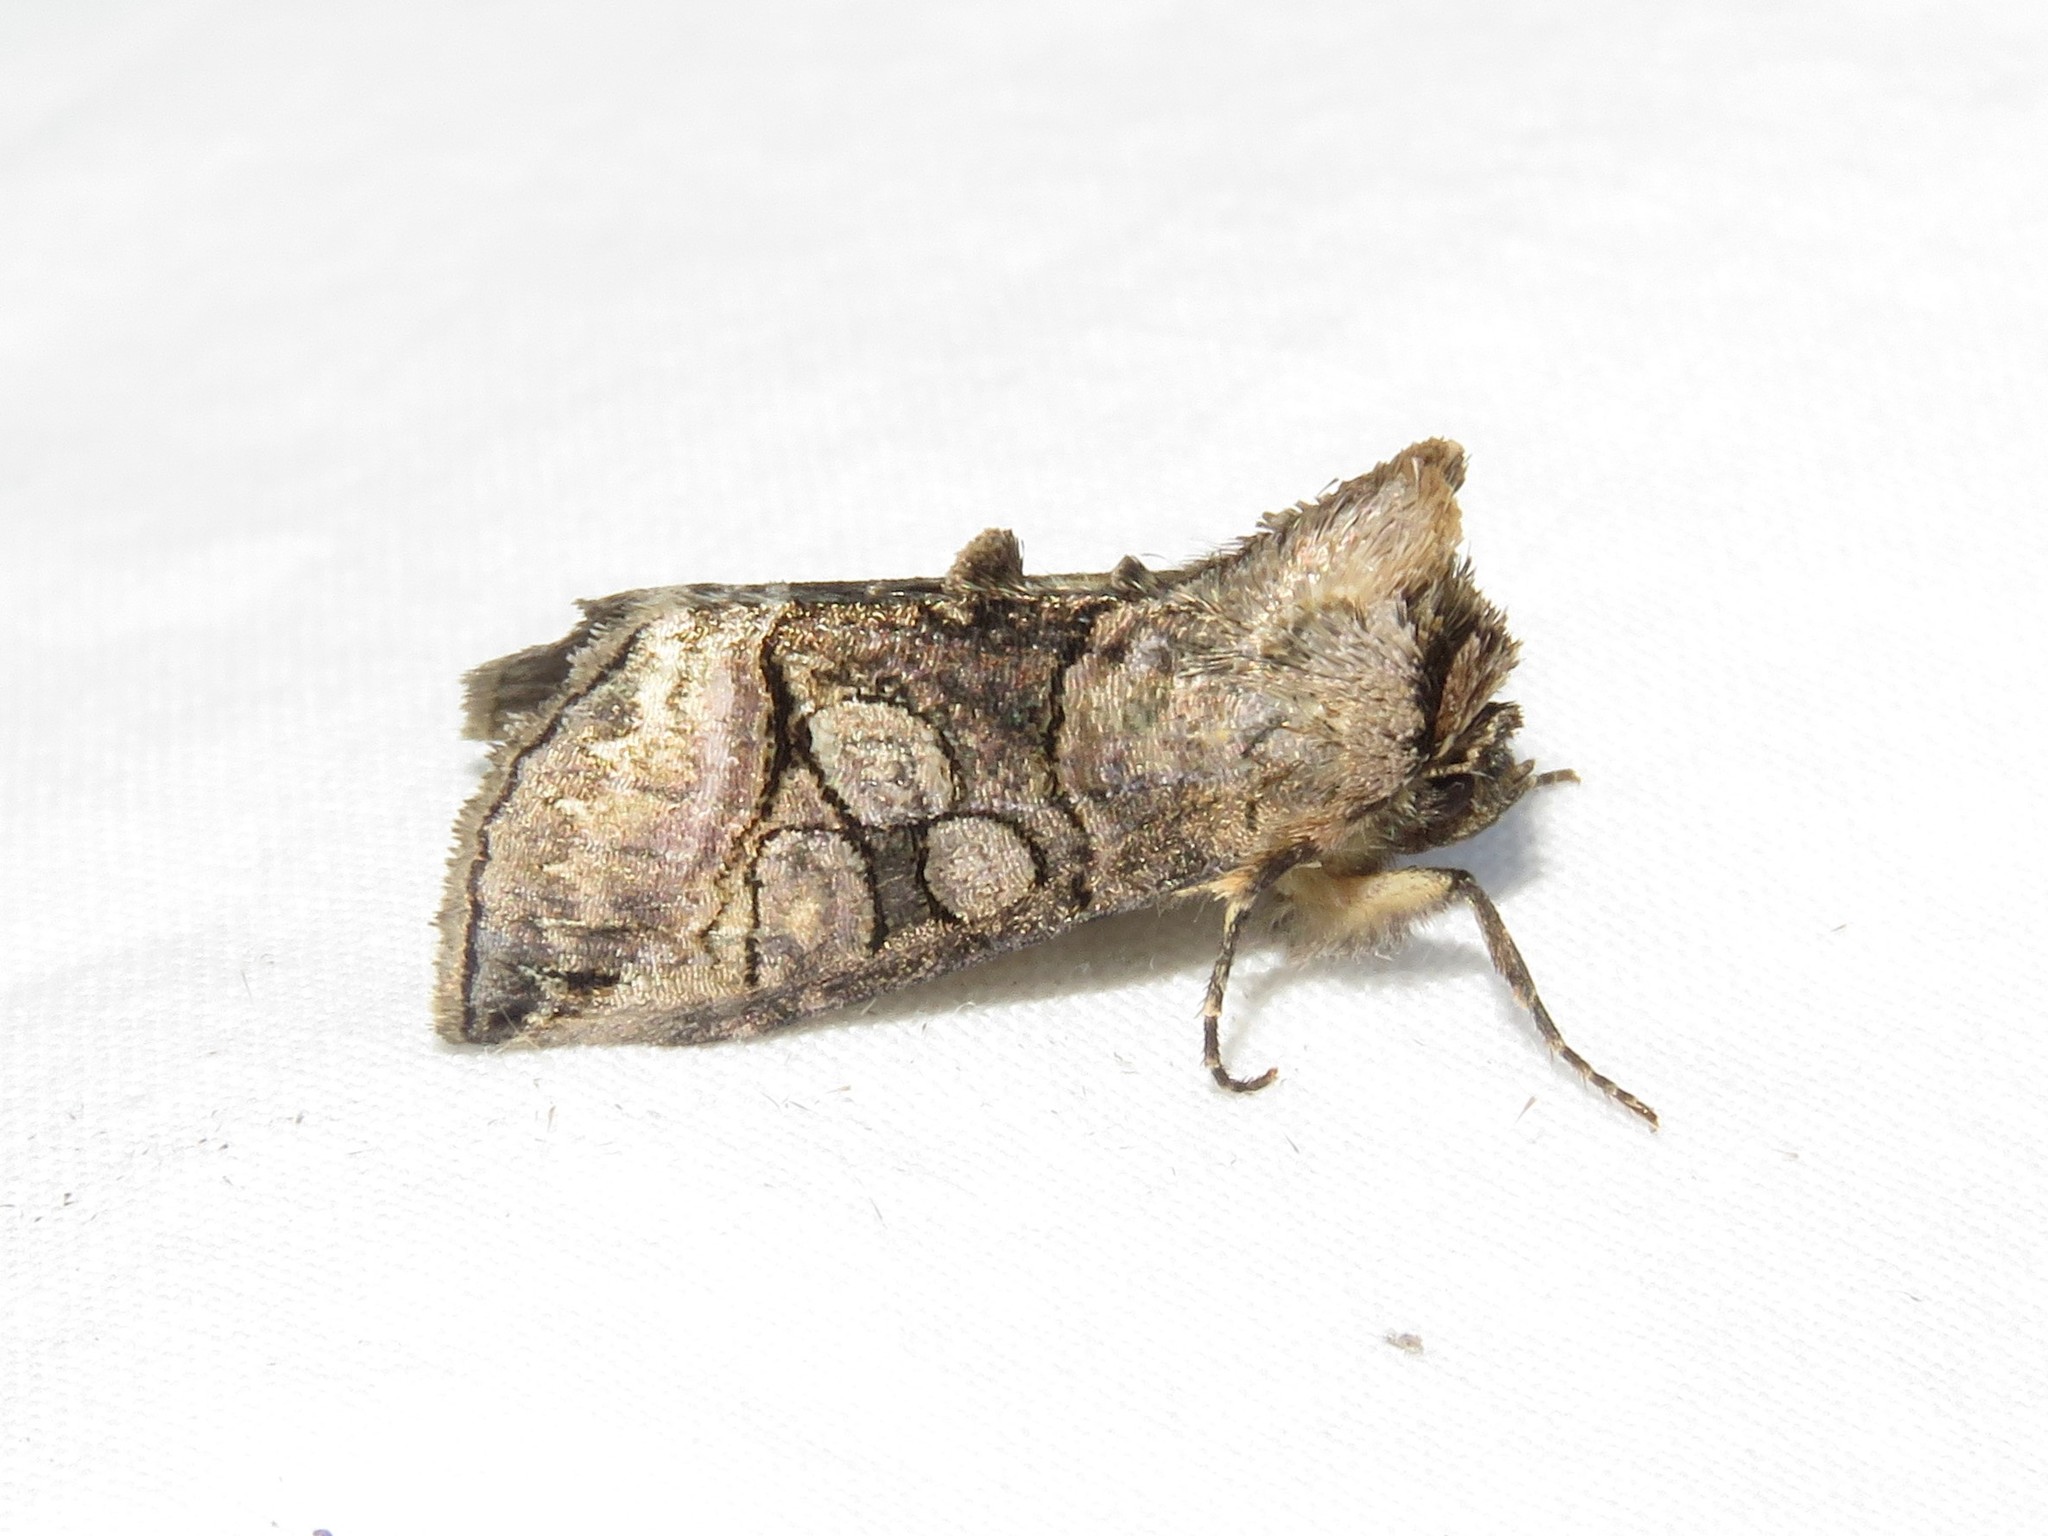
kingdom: Animalia
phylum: Arthropoda
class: Insecta
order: Lepidoptera
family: Noctuidae
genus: Abrostola
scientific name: Abrostola urentis
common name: Spectacled nettle moth
